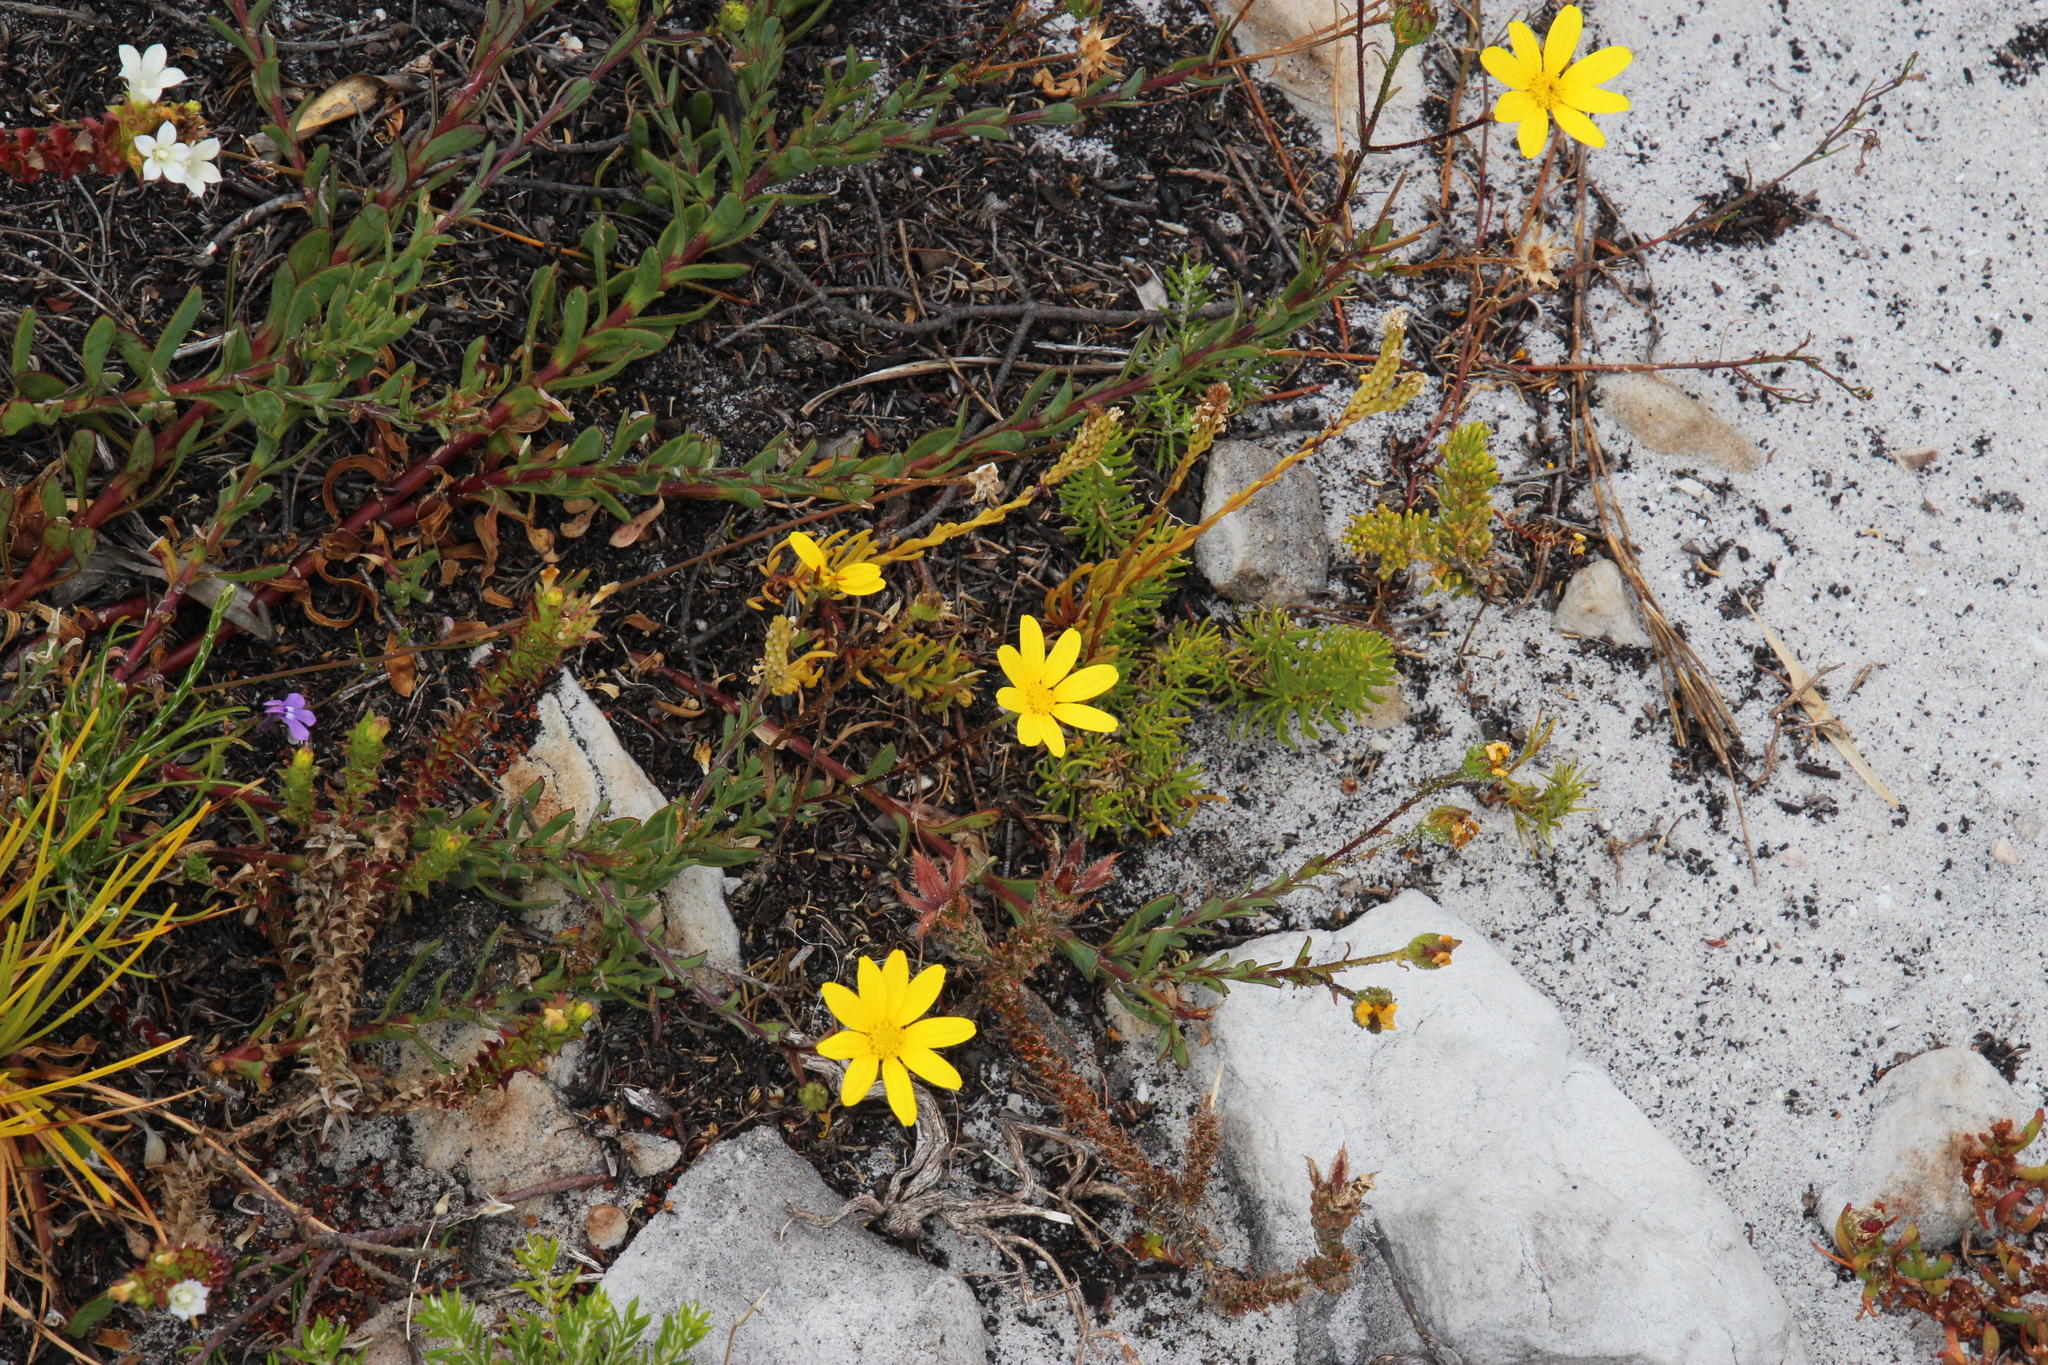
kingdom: Plantae
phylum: Tracheophyta
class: Magnoliopsida
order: Asterales
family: Asteraceae
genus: Osteospermum
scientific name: Osteospermum polygaloides
